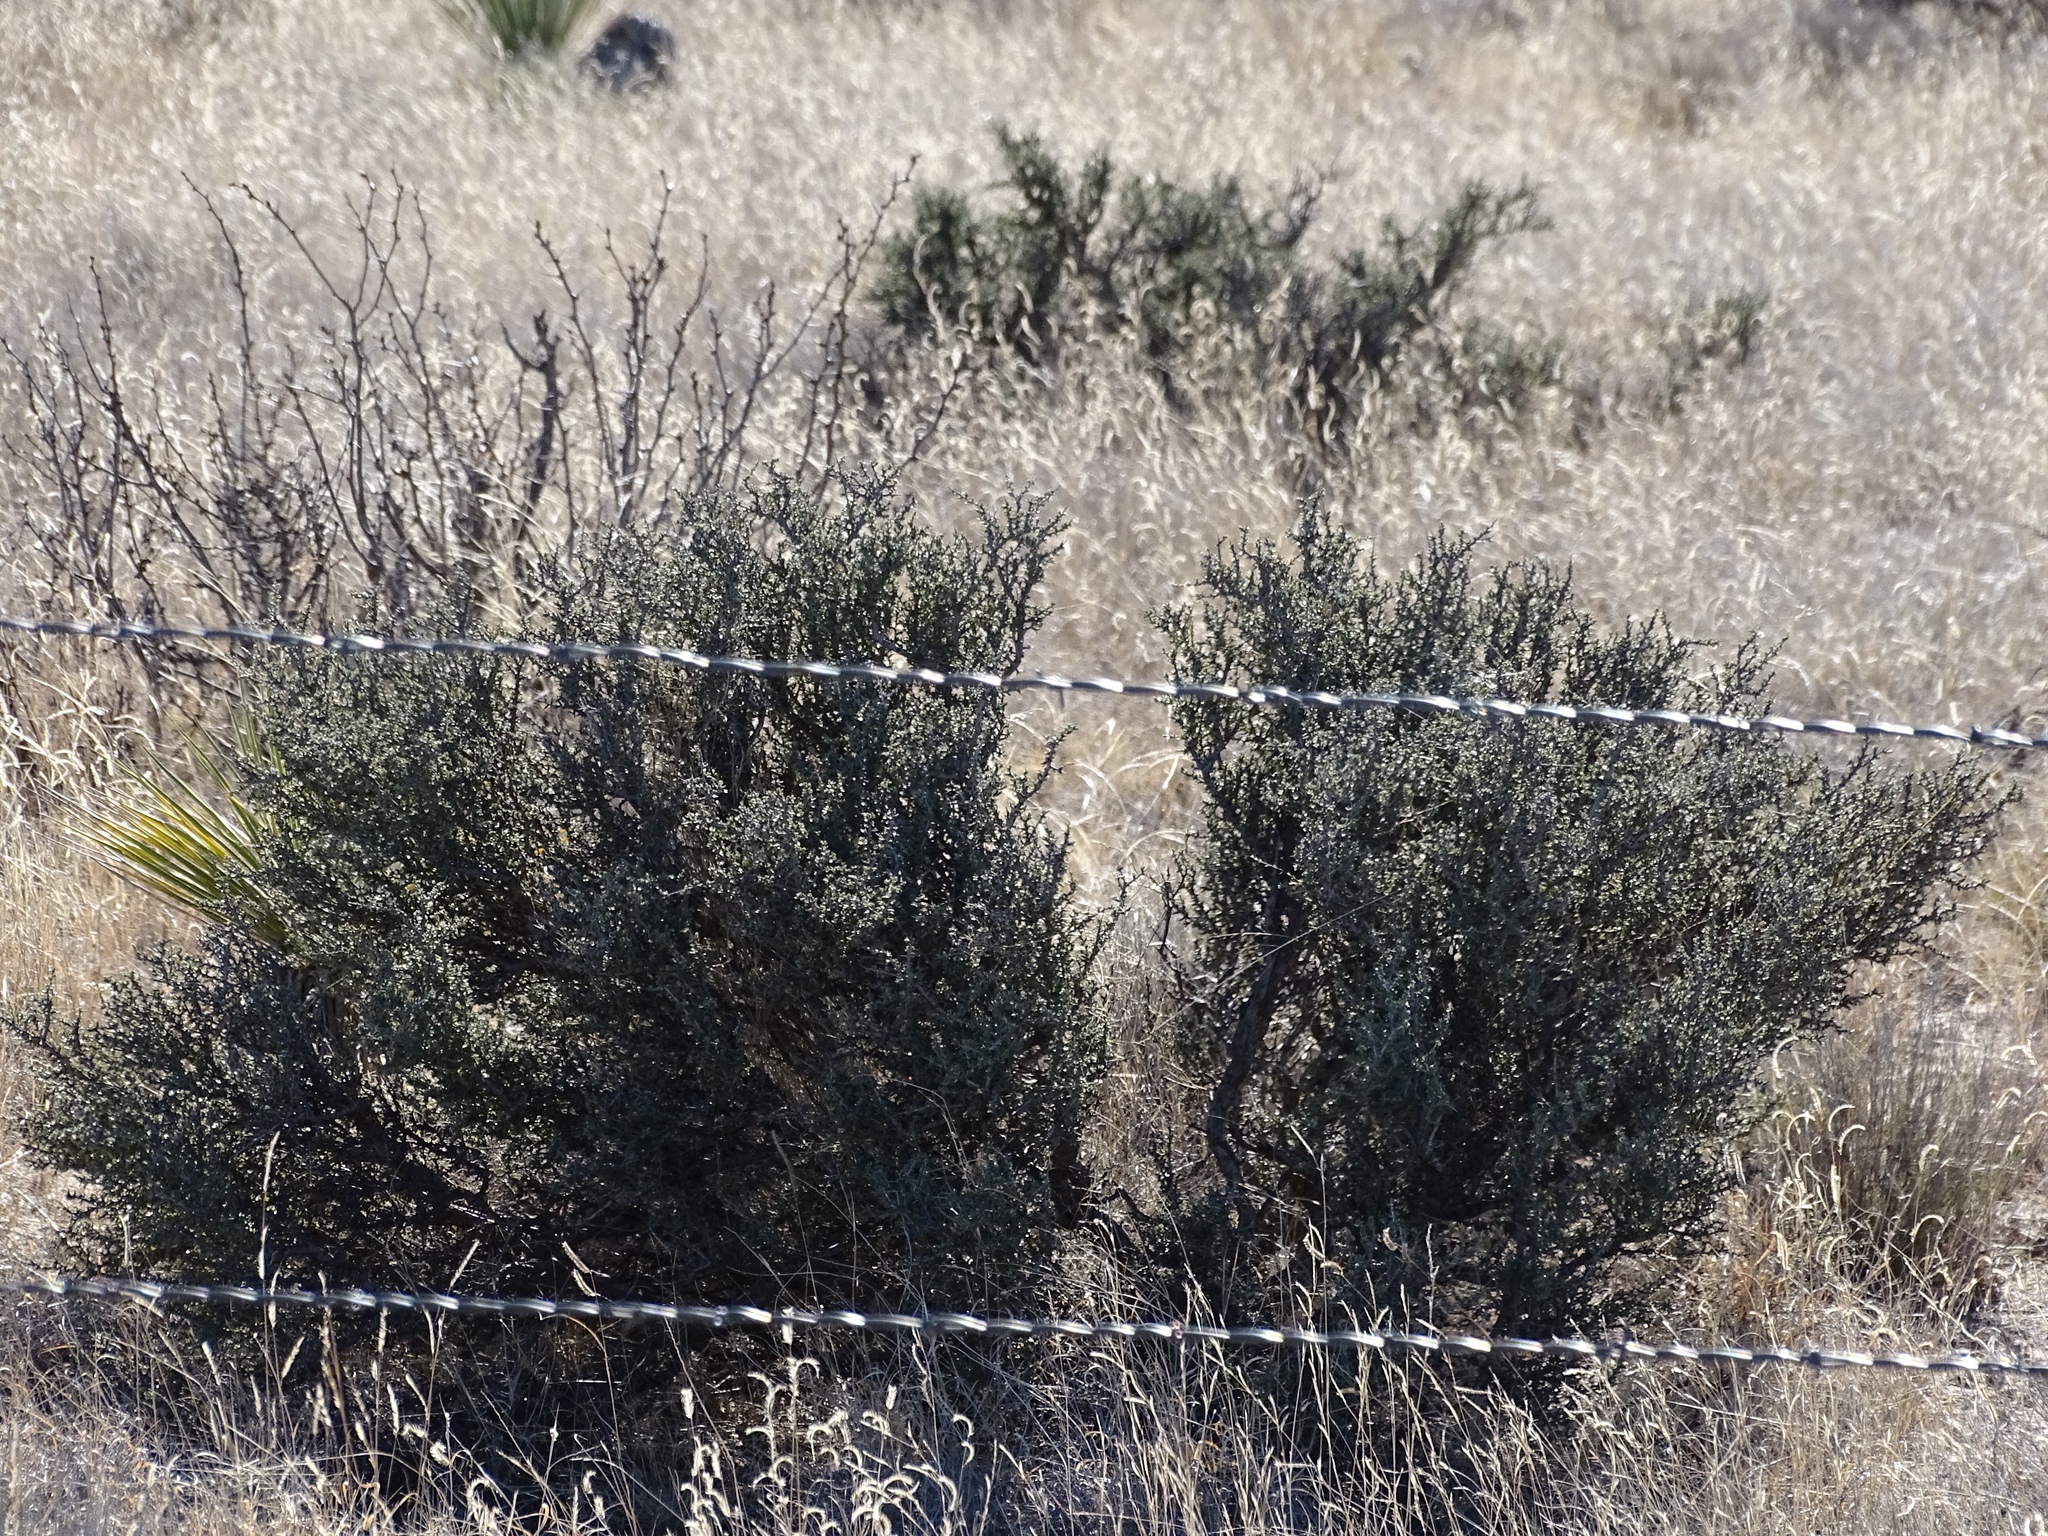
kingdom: Plantae
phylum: Tracheophyta
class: Magnoliopsida
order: Rosales
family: Rhamnaceae
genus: Condalia
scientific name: Condalia ericoides
